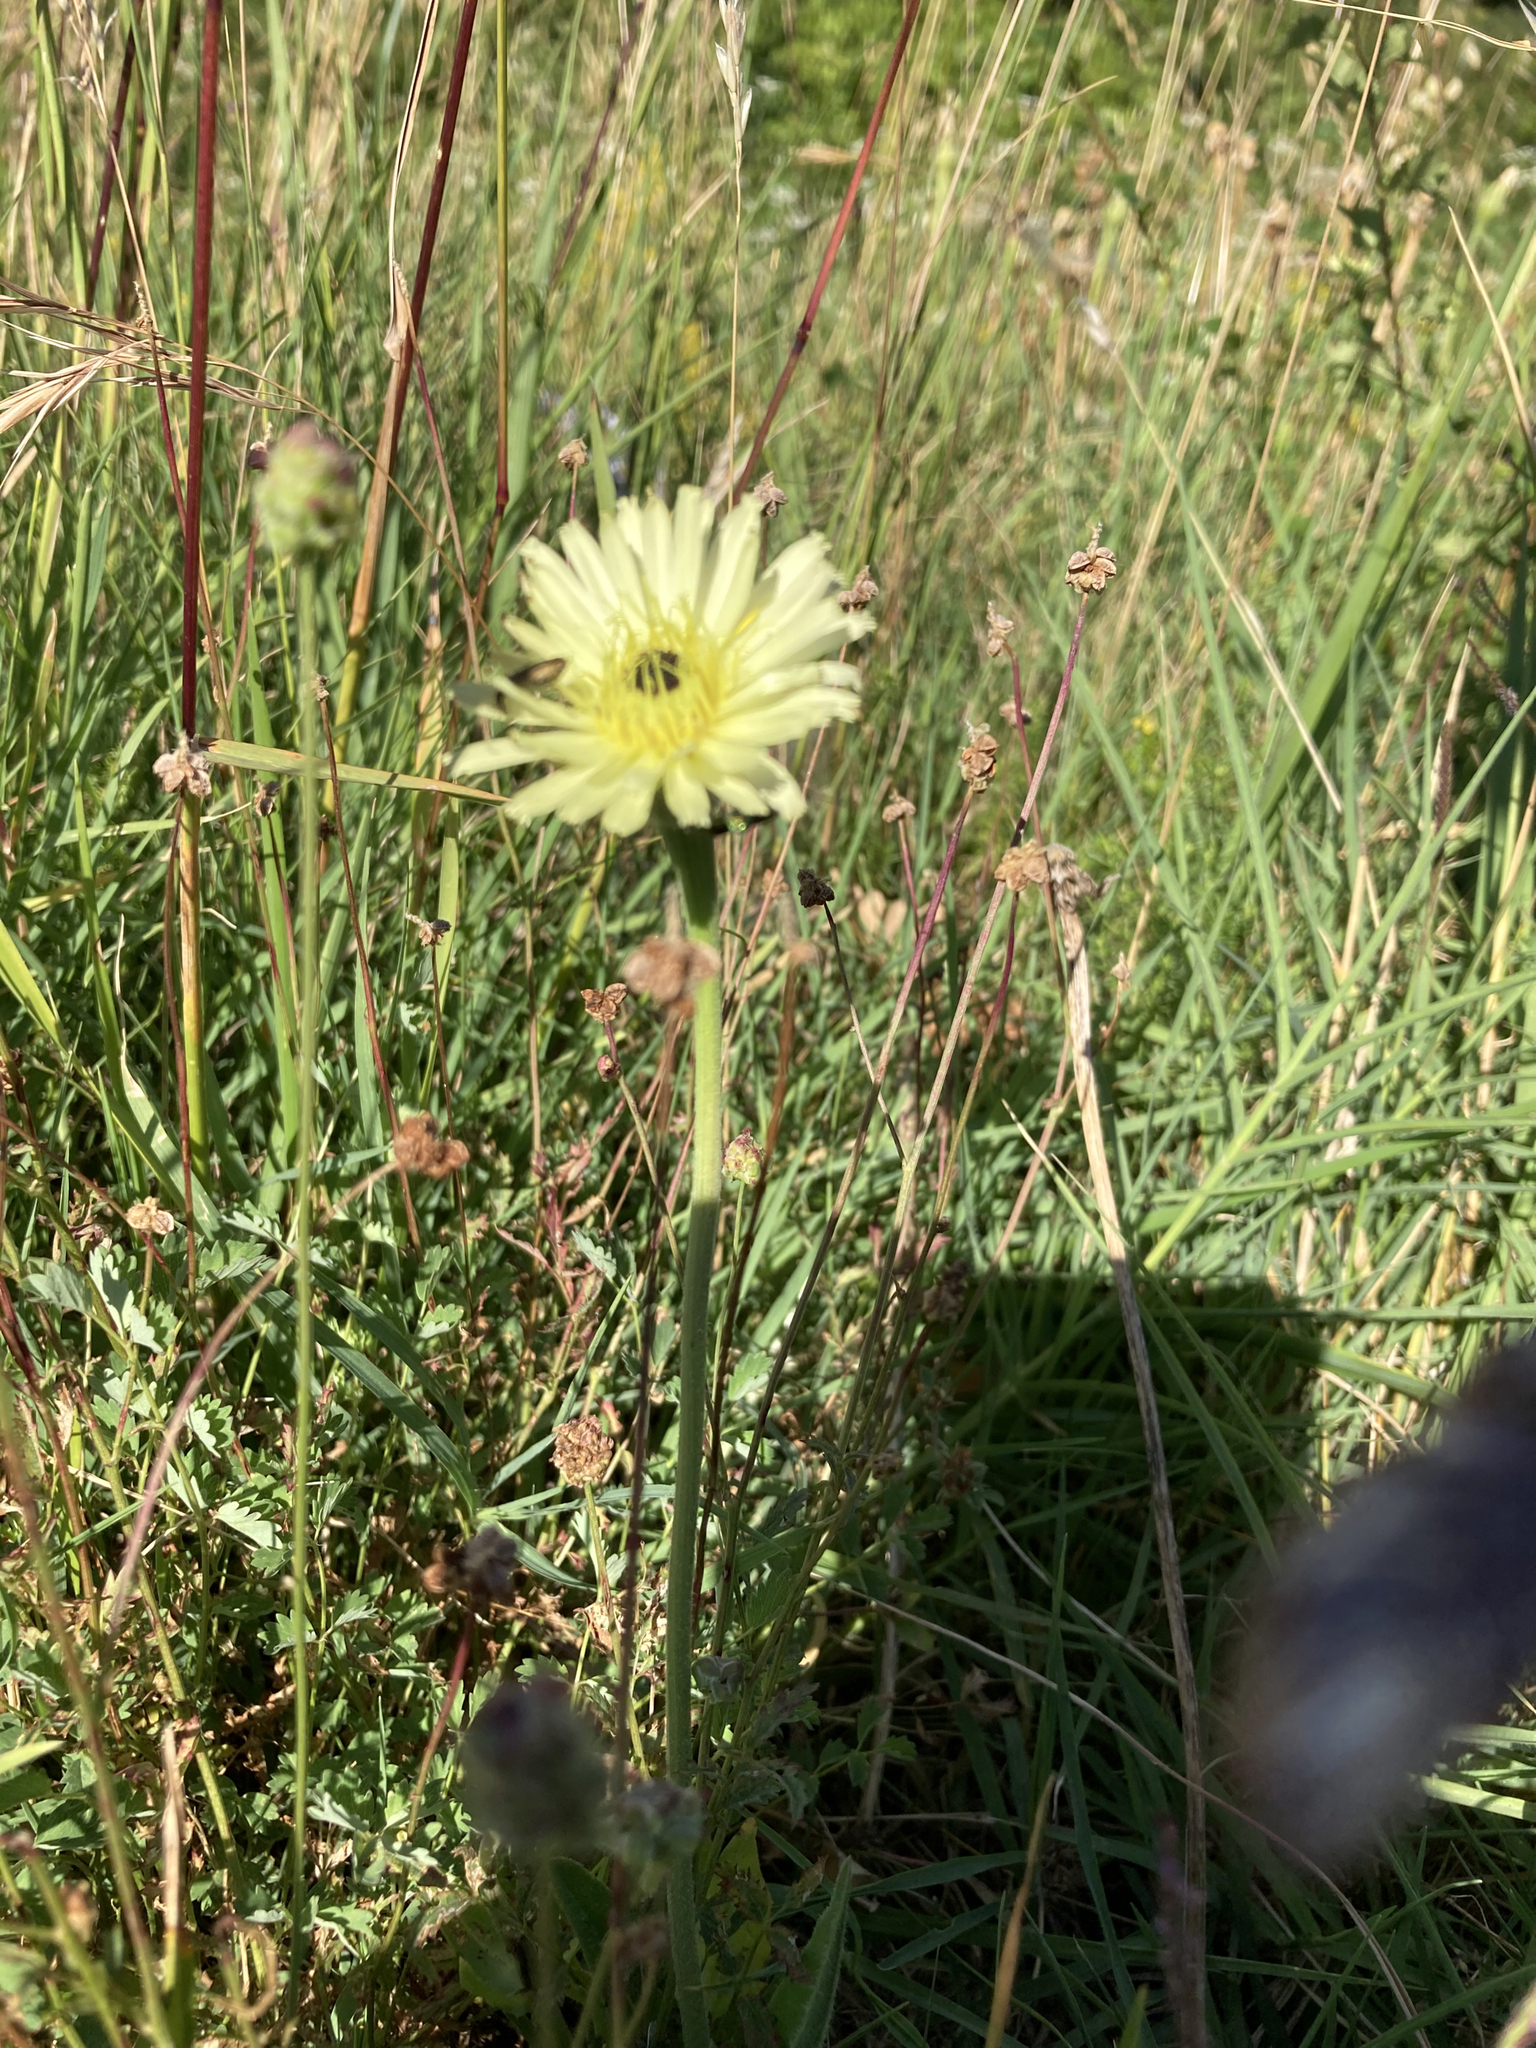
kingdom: Plantae
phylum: Tracheophyta
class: Magnoliopsida
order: Asterales
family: Asteraceae
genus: Urospermum
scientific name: Urospermum dalechampii
